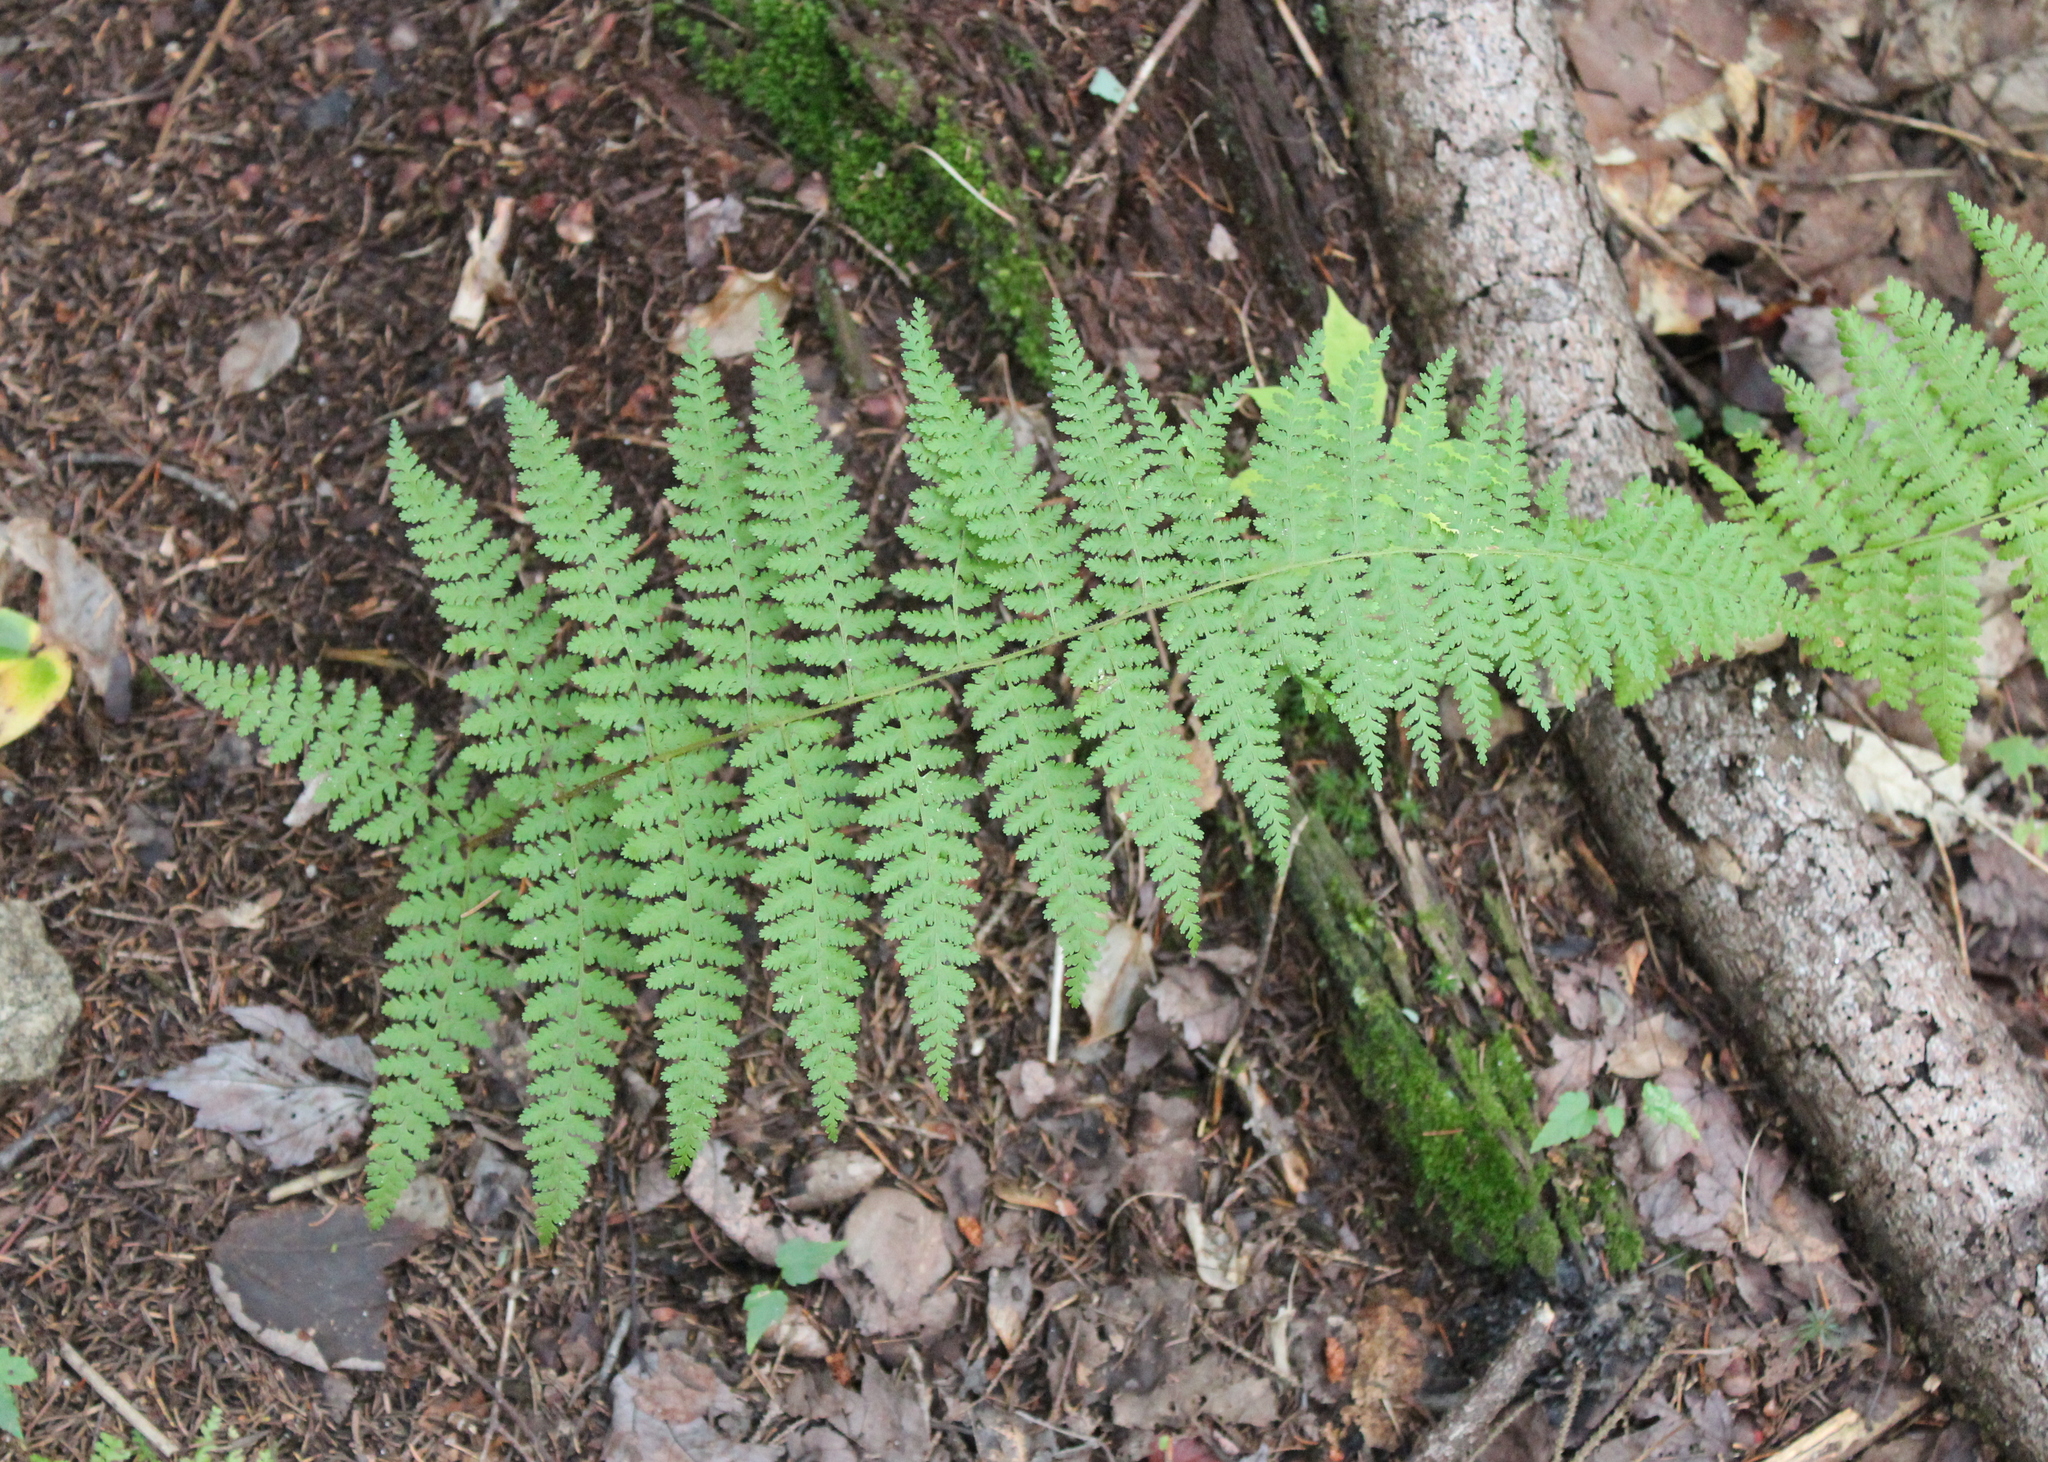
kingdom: Plantae
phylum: Tracheophyta
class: Polypodiopsida
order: Polypodiales
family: Dennstaedtiaceae
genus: Sitobolium
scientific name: Sitobolium punctilobum
